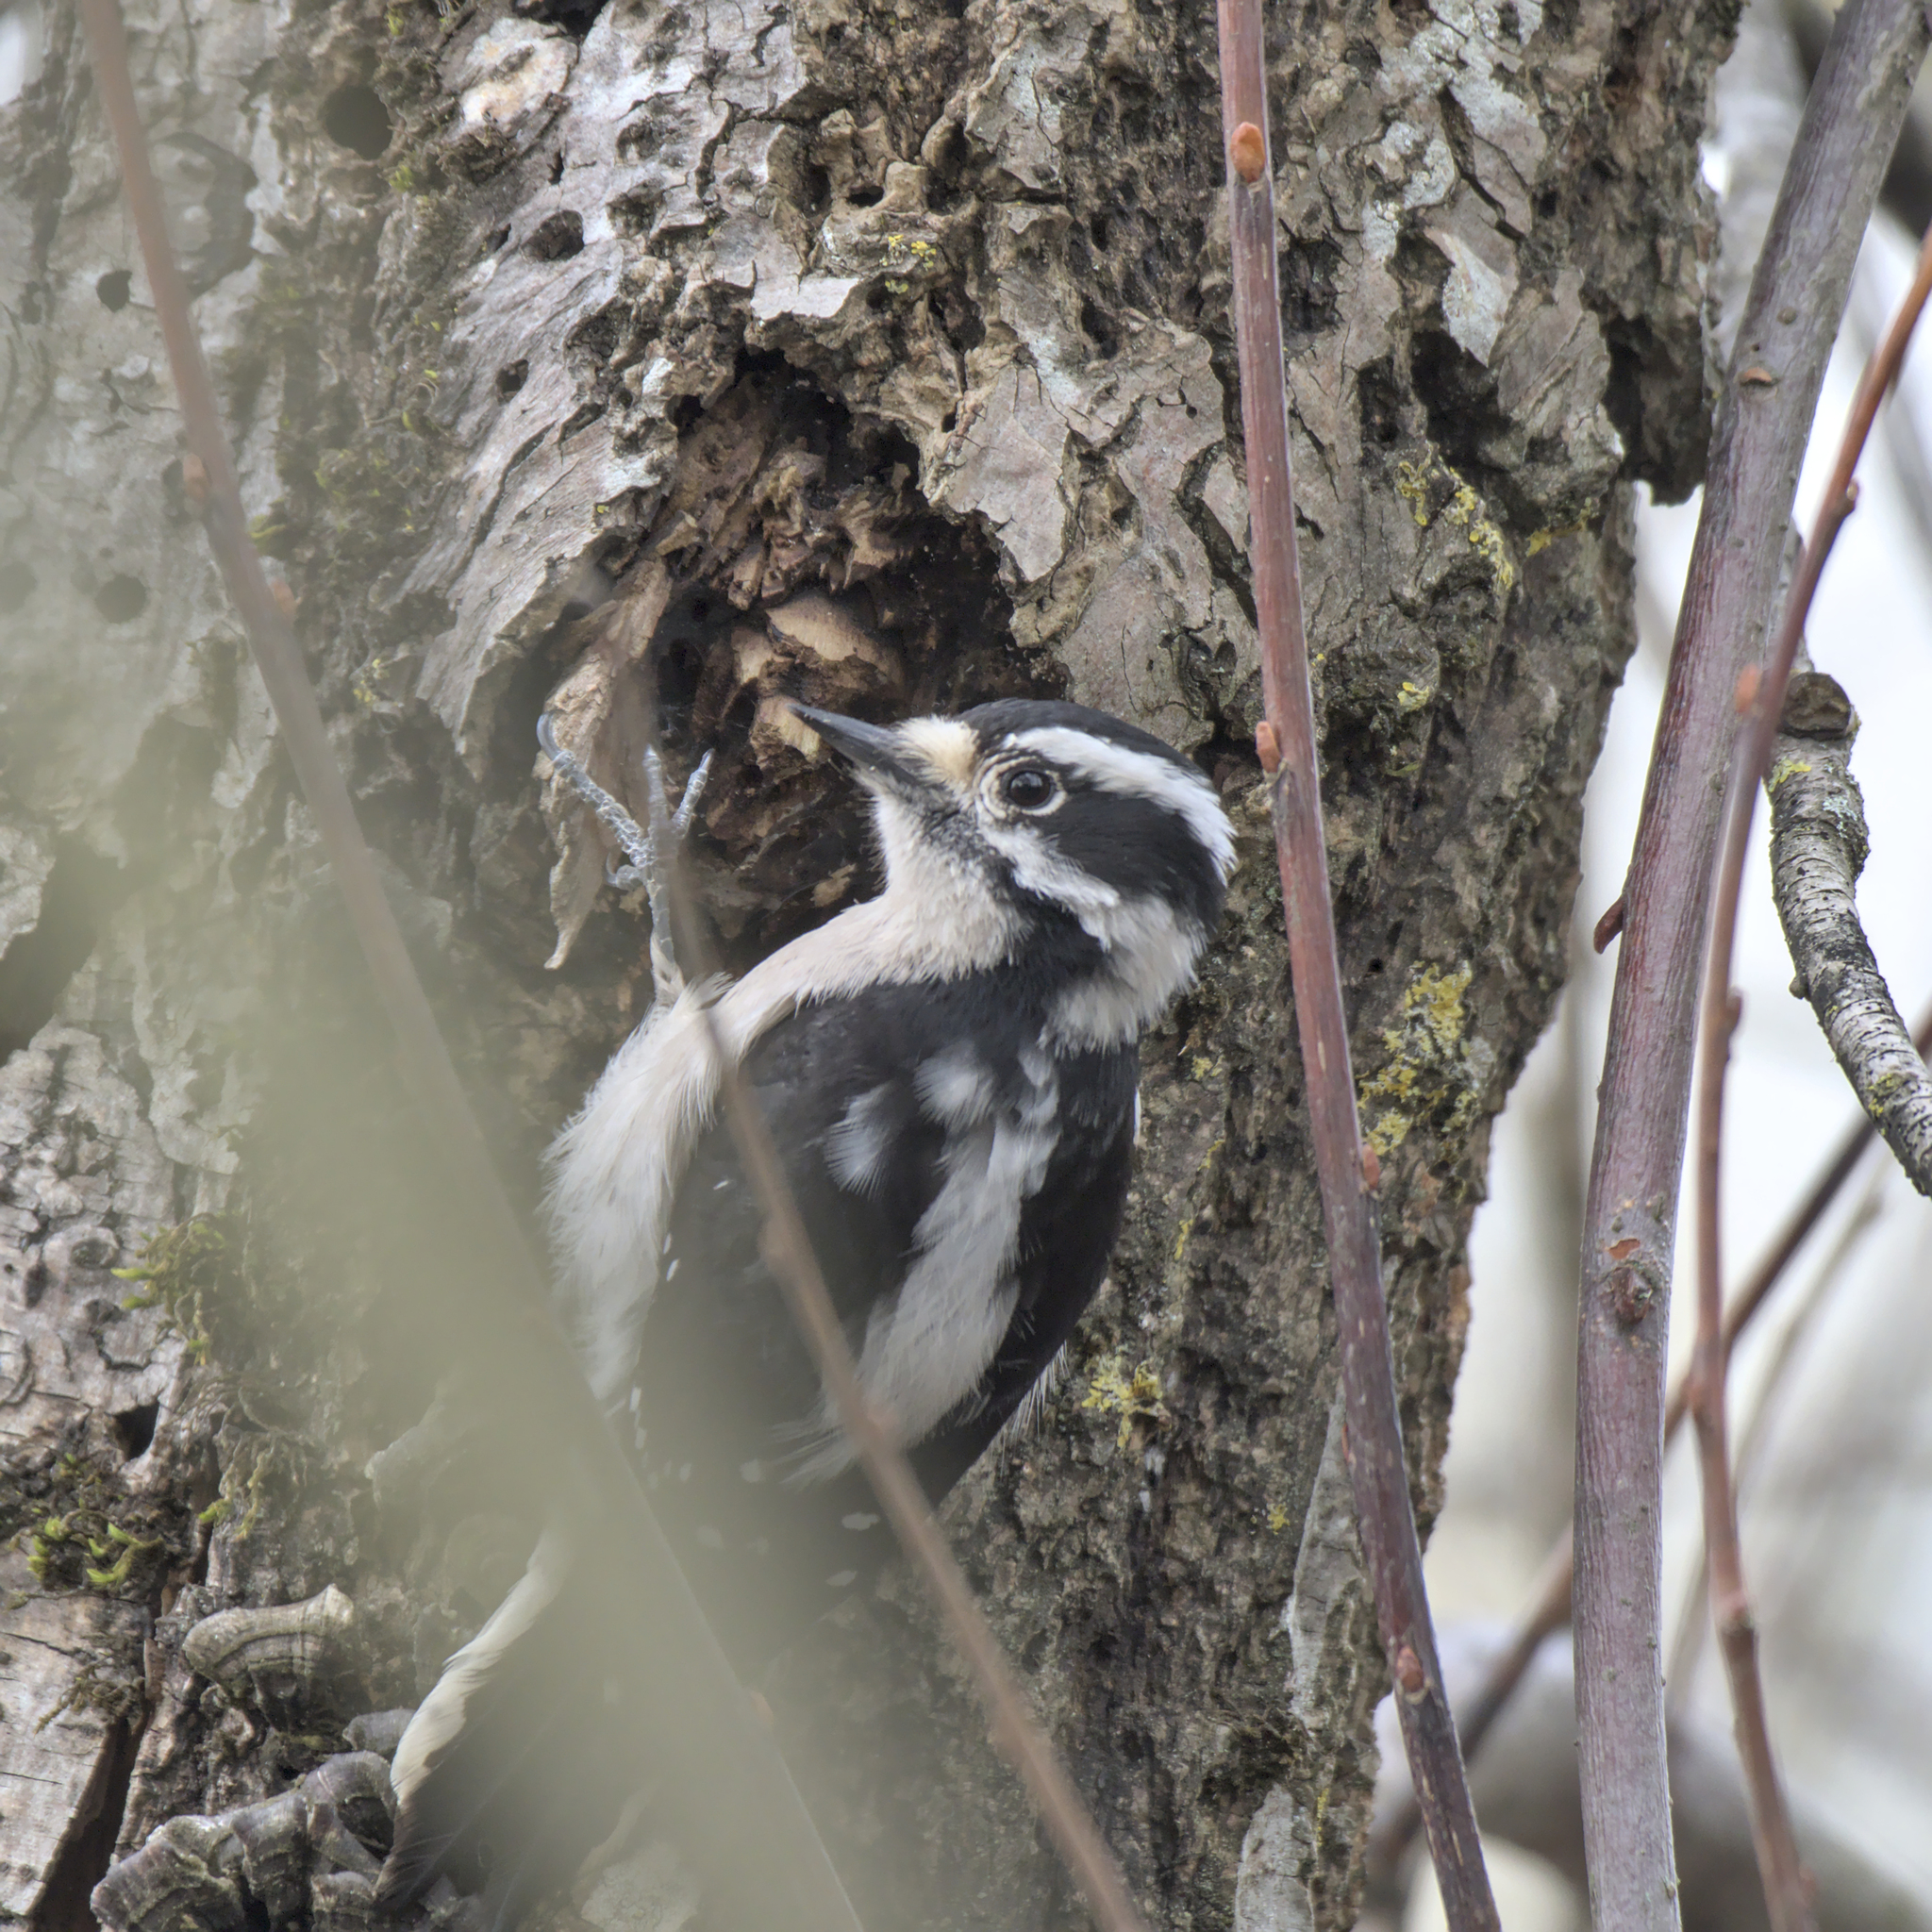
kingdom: Animalia
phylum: Chordata
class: Aves
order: Piciformes
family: Picidae
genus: Dryobates
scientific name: Dryobates pubescens
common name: Downy woodpecker
